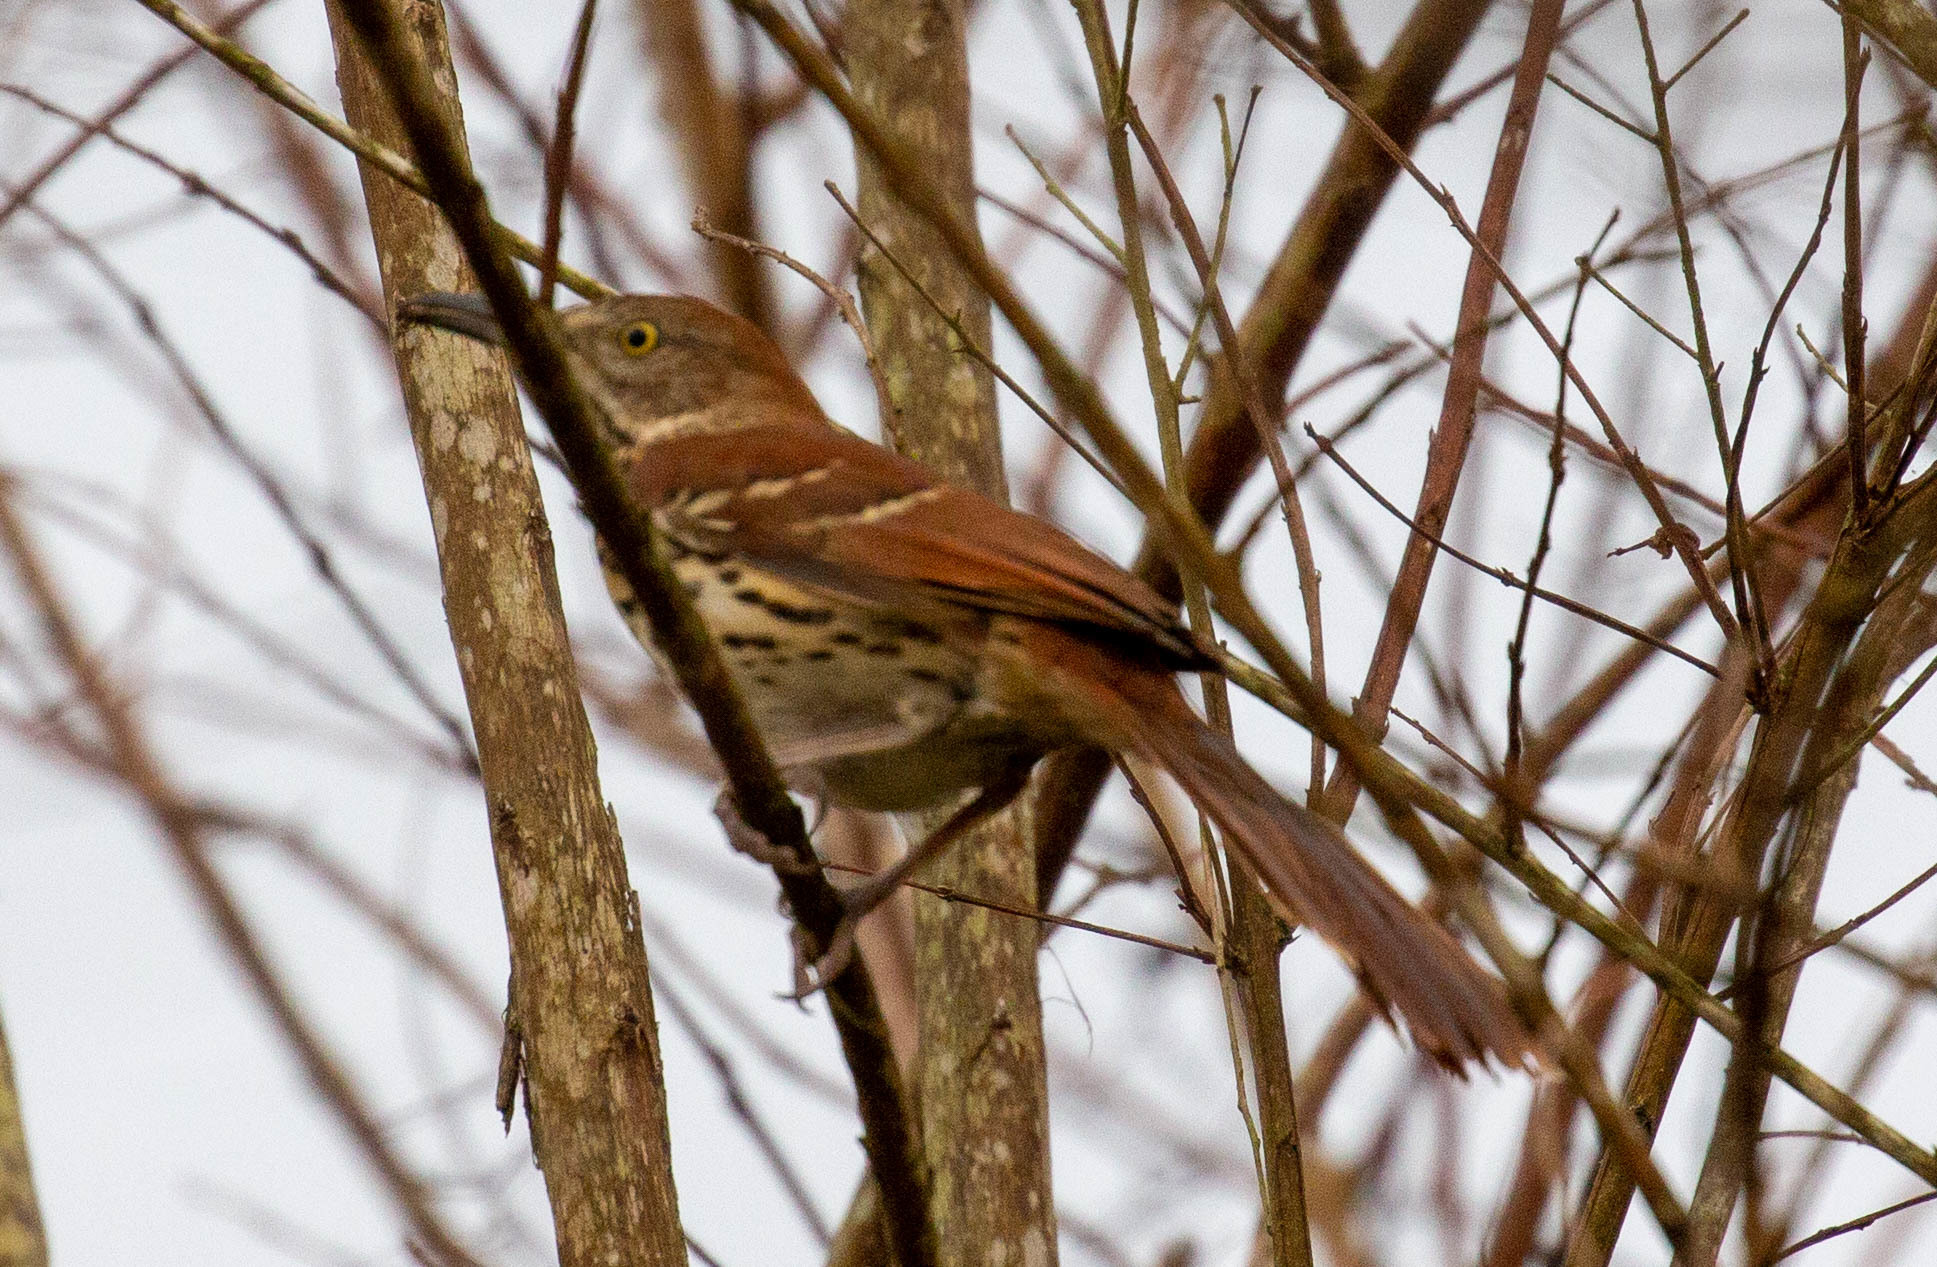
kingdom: Animalia
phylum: Chordata
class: Aves
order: Passeriformes
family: Mimidae
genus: Toxostoma
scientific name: Toxostoma rufum
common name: Brown thrasher
